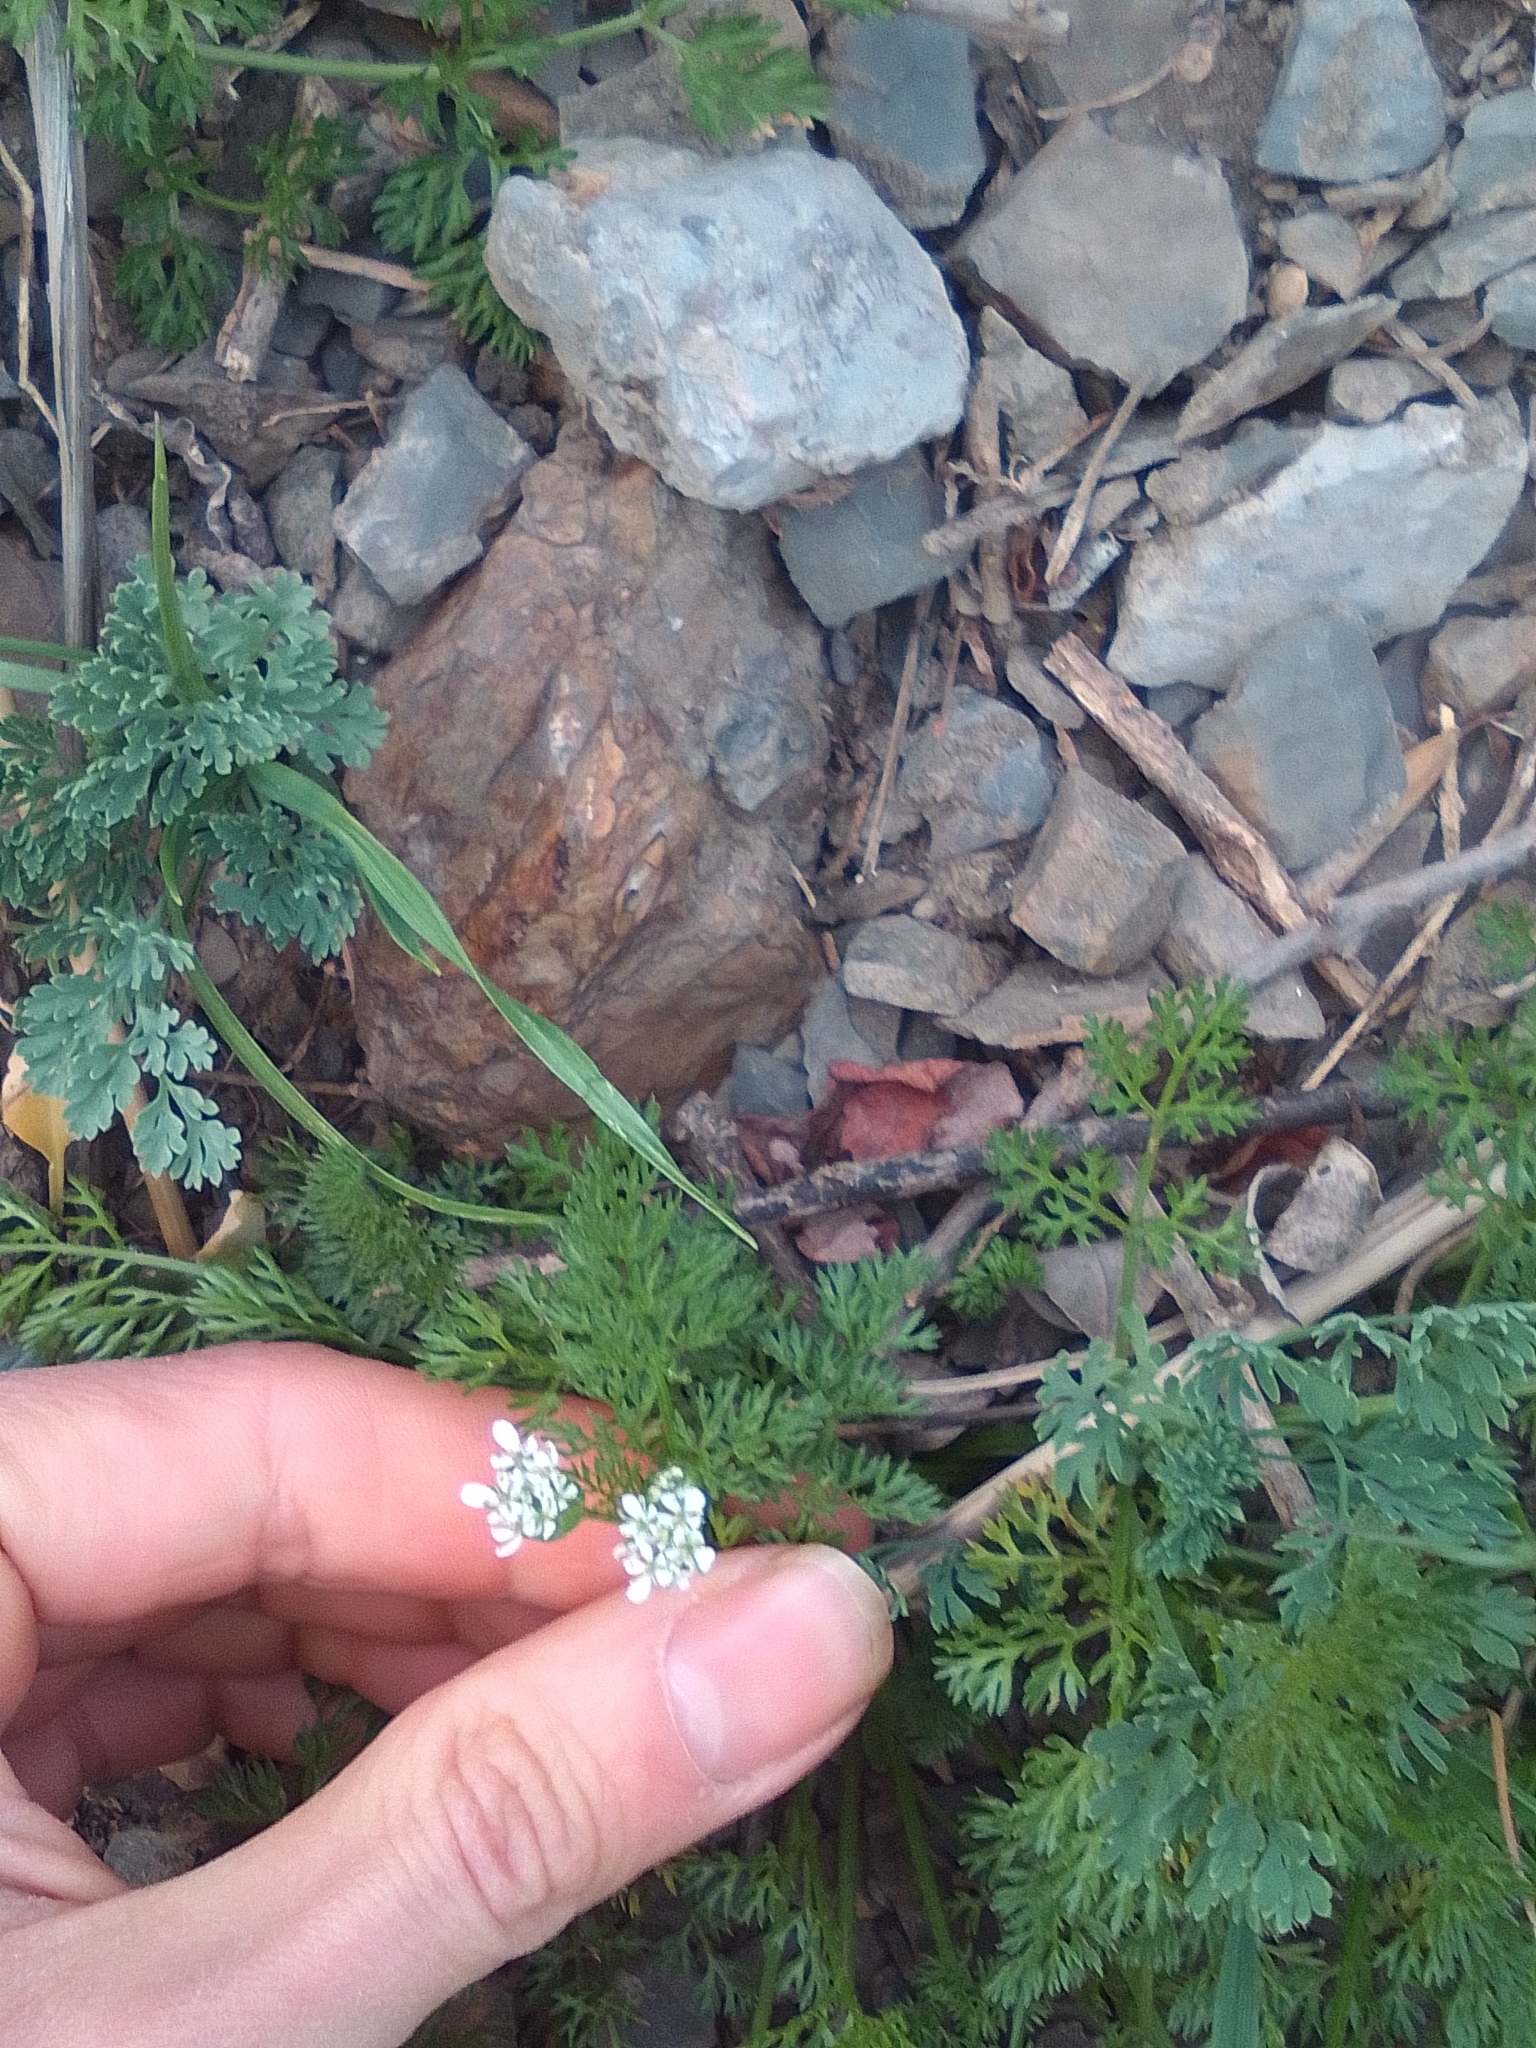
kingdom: Plantae
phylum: Tracheophyta
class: Magnoliopsida
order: Apiales
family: Apiaceae
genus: Coriandrum
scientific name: Coriandrum sativum
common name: Coriander
